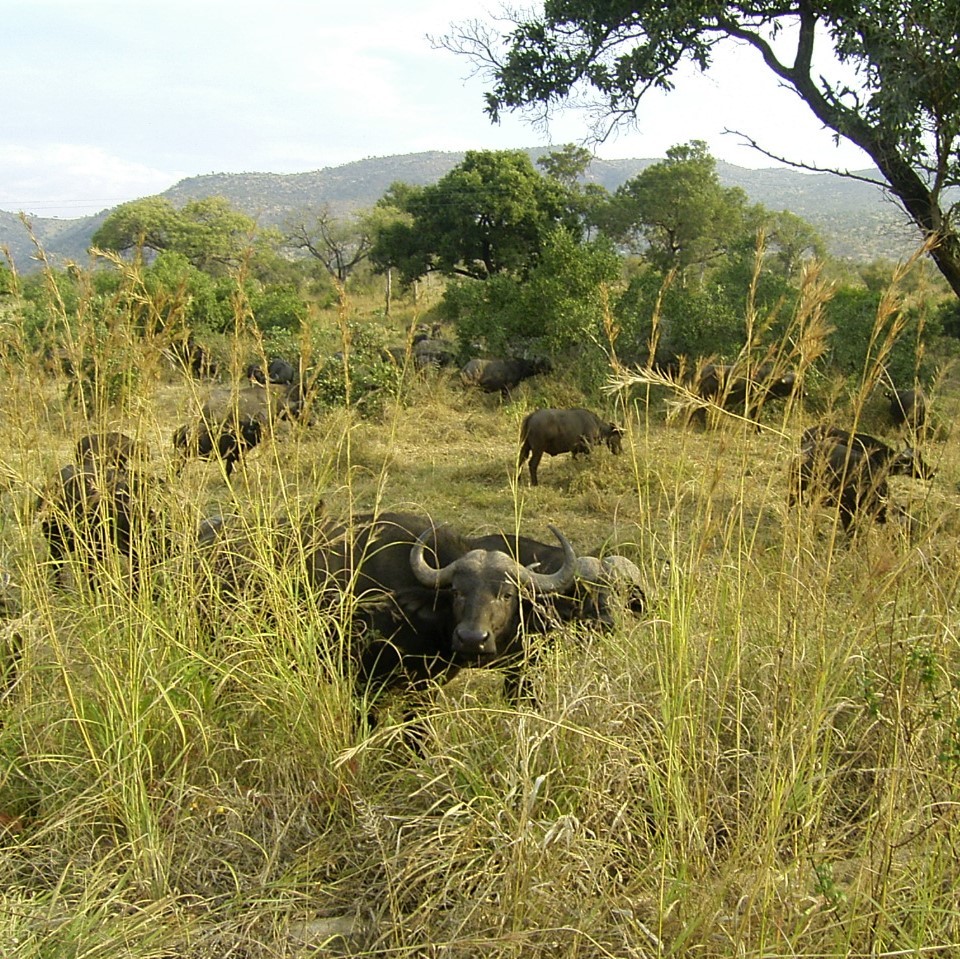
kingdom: Animalia
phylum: Chordata
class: Mammalia
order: Artiodactyla
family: Bovidae
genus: Syncerus
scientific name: Syncerus caffer
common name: African buffalo
